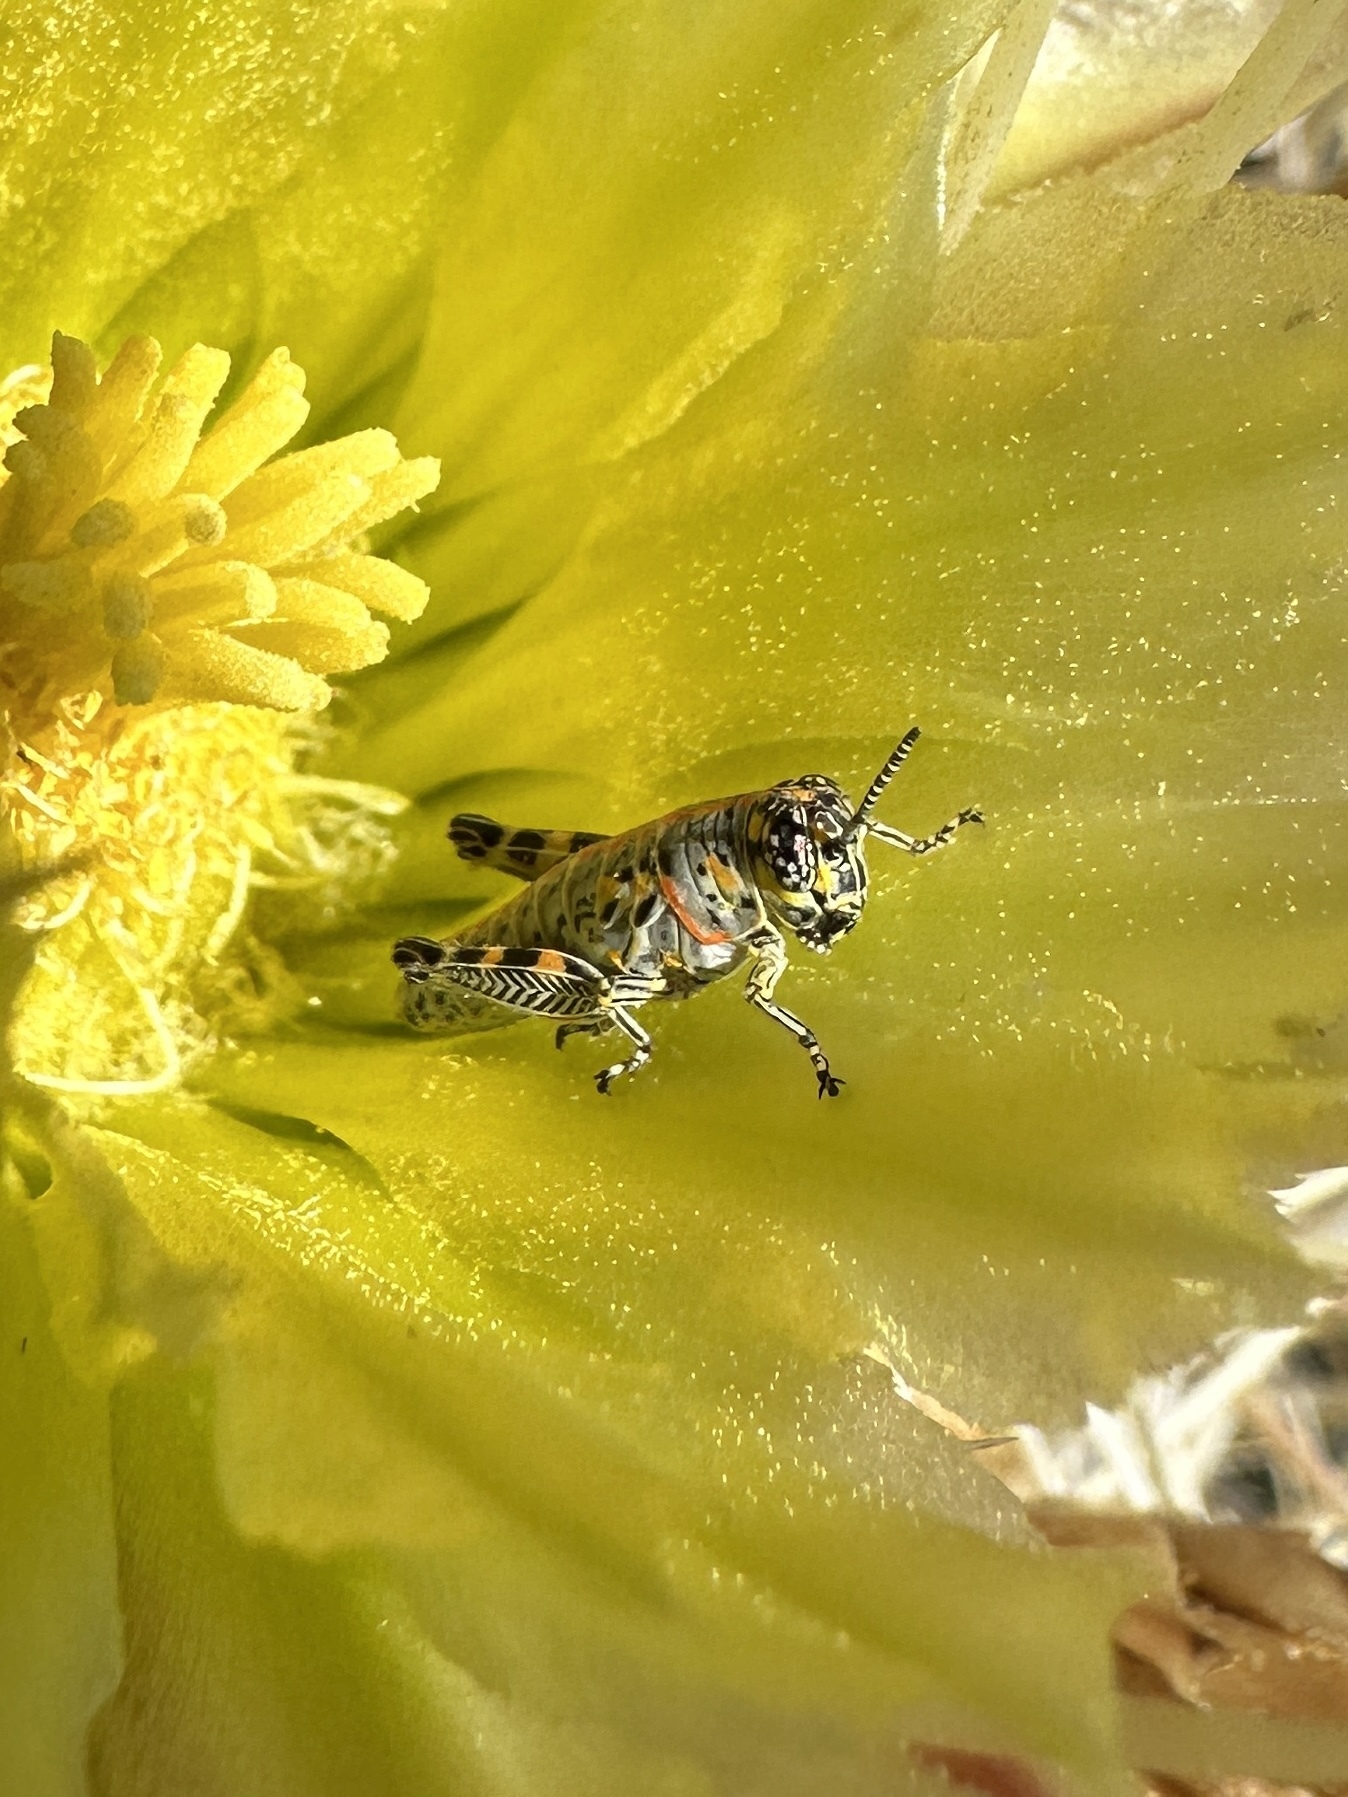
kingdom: Animalia
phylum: Arthropoda
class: Insecta
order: Orthoptera
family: Acrididae
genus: Poecilotettix
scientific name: Poecilotettix sanguineus
